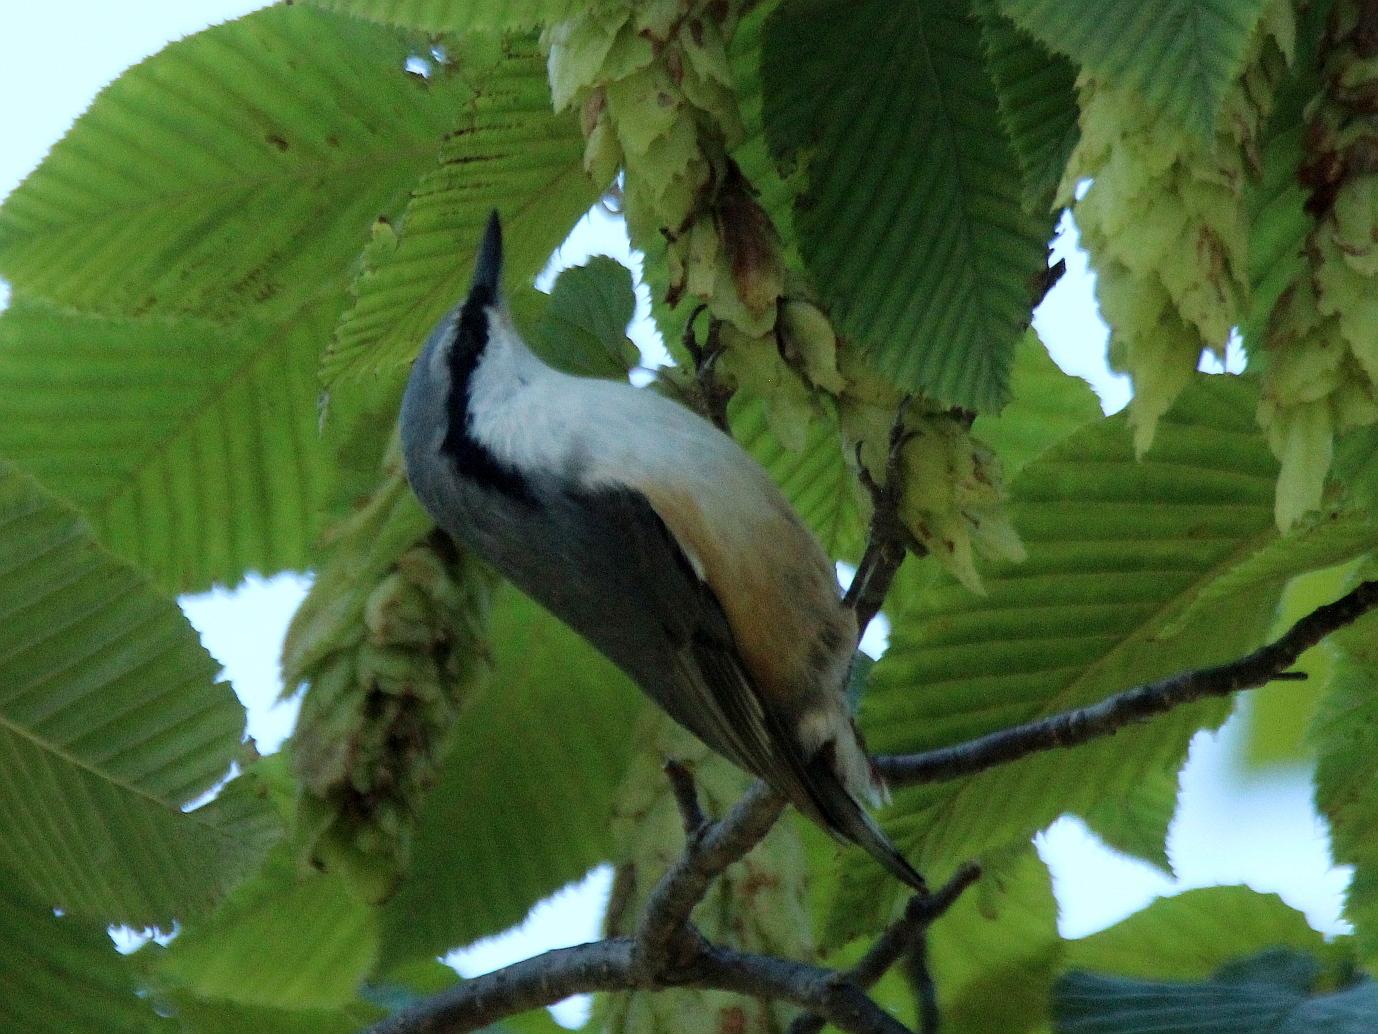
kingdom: Animalia
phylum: Chordata
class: Aves
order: Passeriformes
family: Sittidae
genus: Sitta
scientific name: Sitta europaea
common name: Eurasian nuthatch
